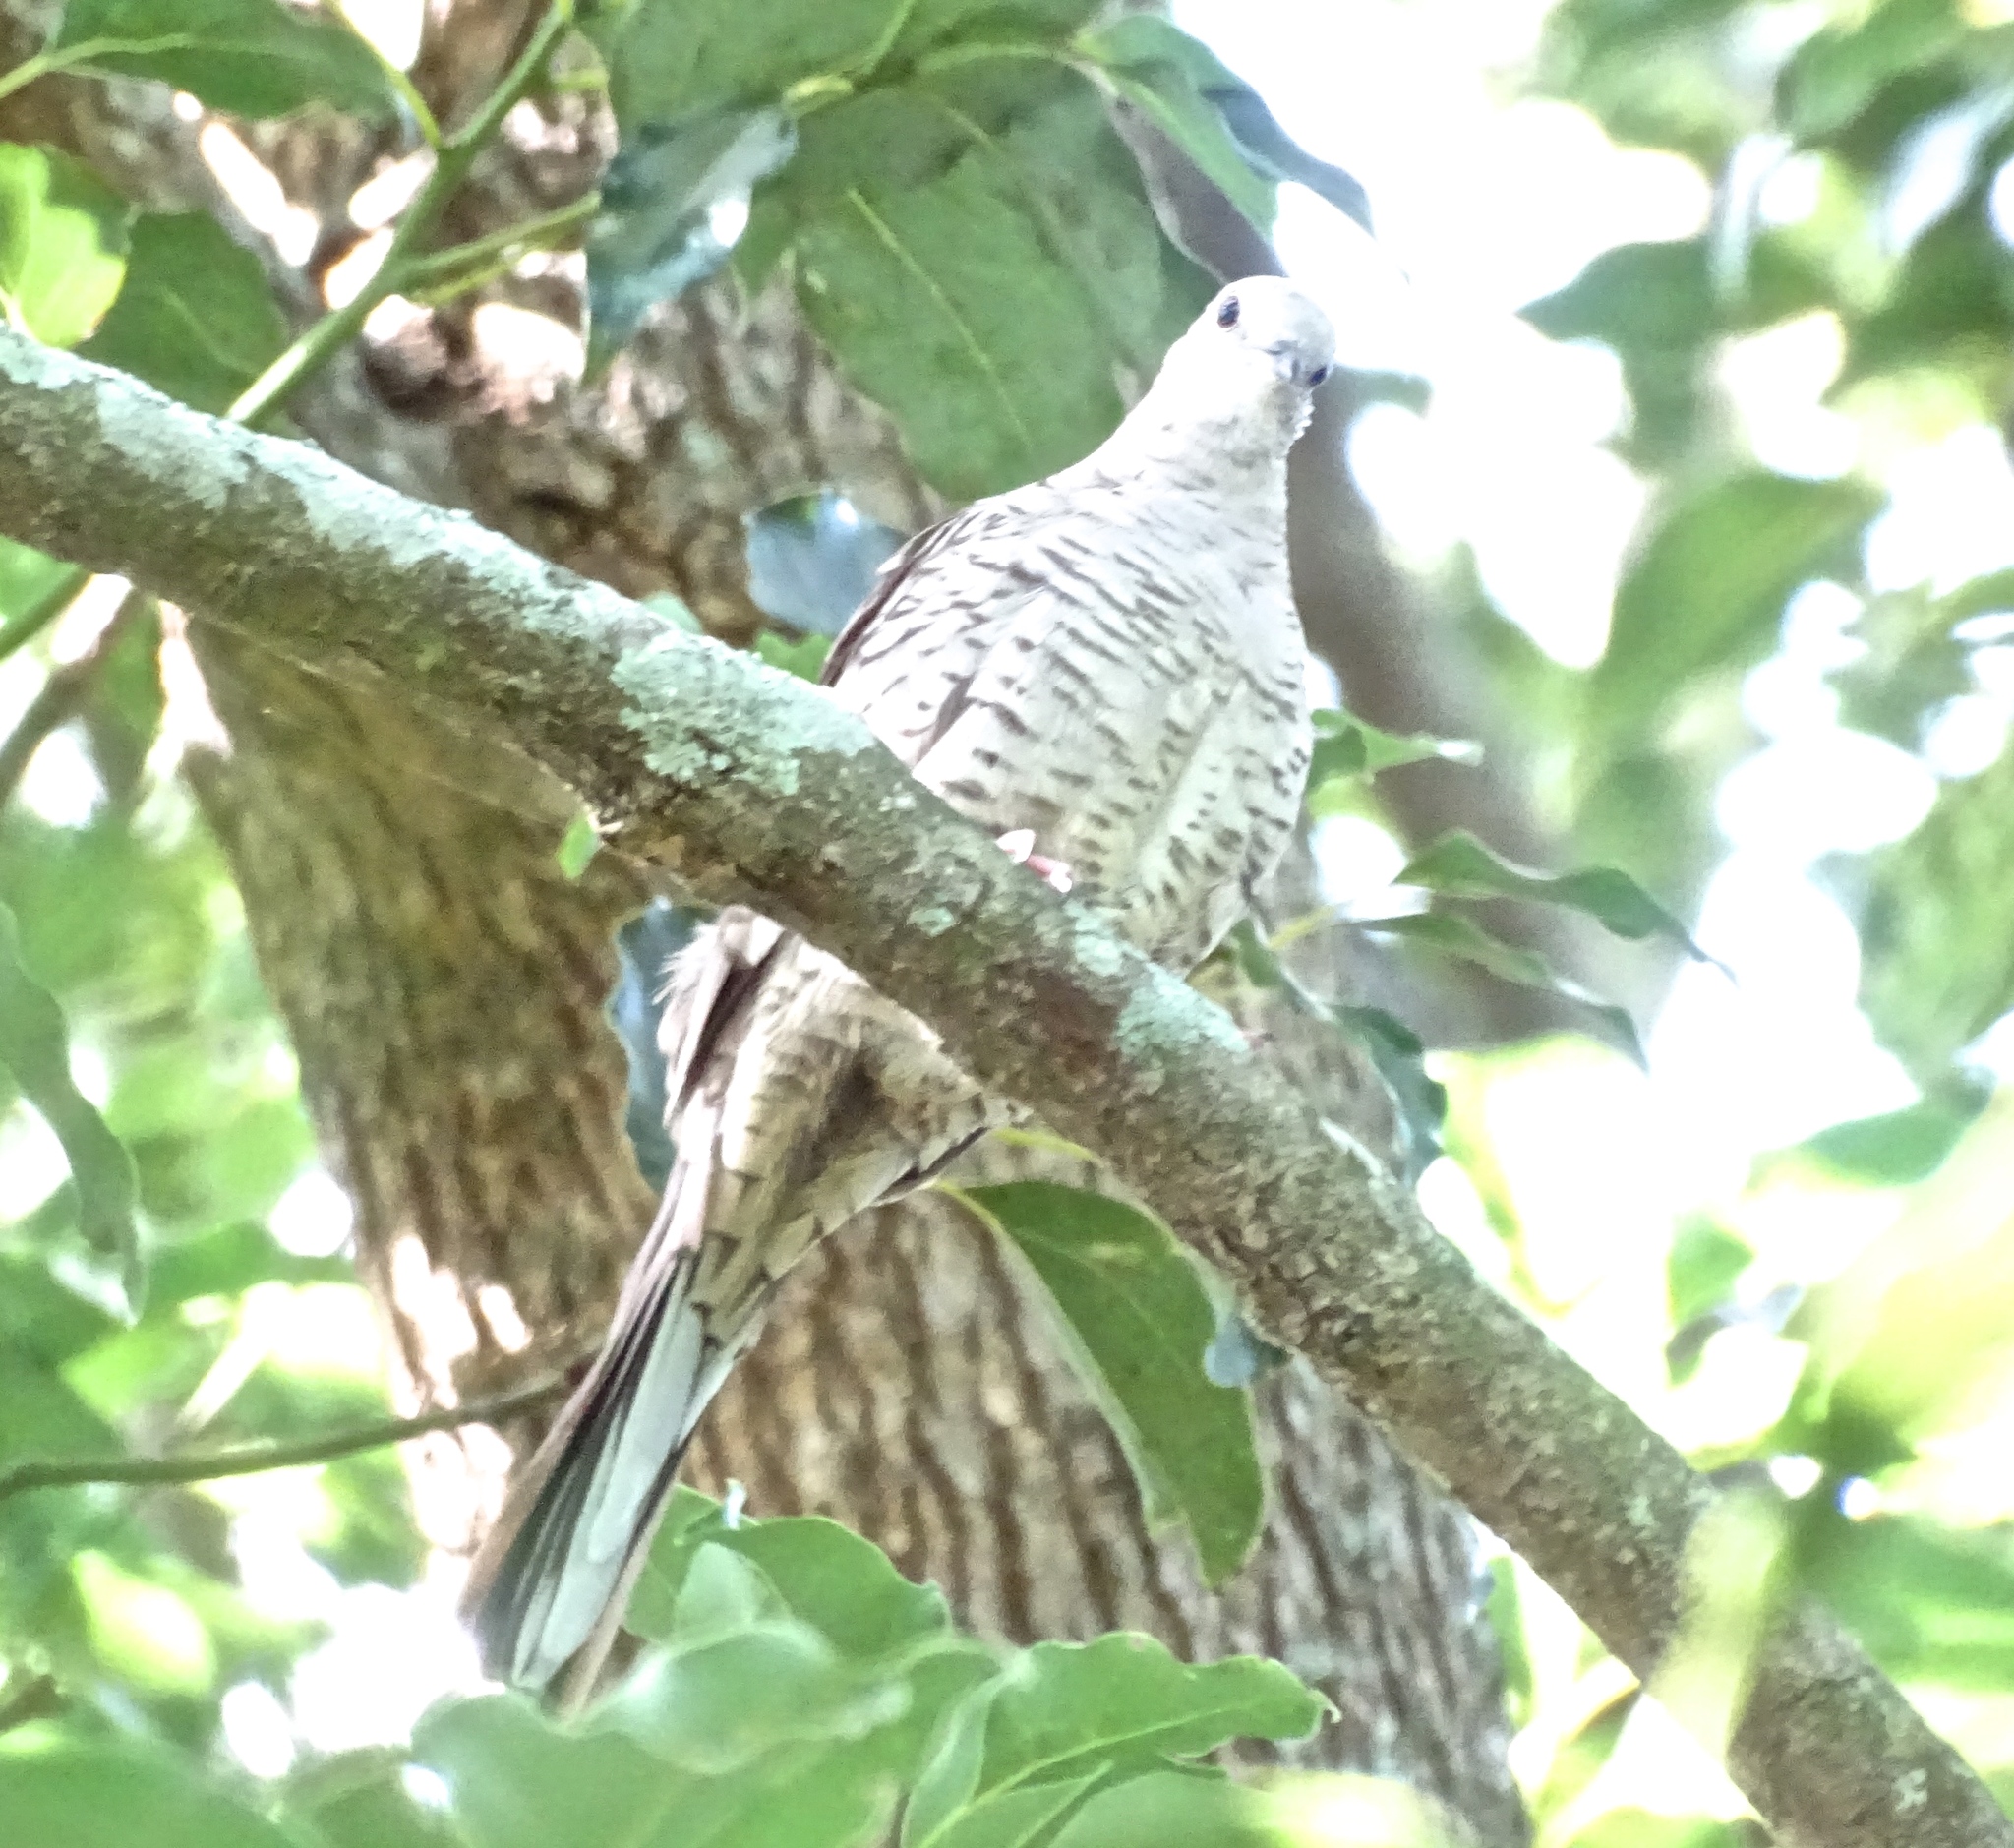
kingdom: Animalia
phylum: Chordata
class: Aves
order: Columbiformes
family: Columbidae
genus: Columbina
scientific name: Columbina inca
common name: Inca dove
